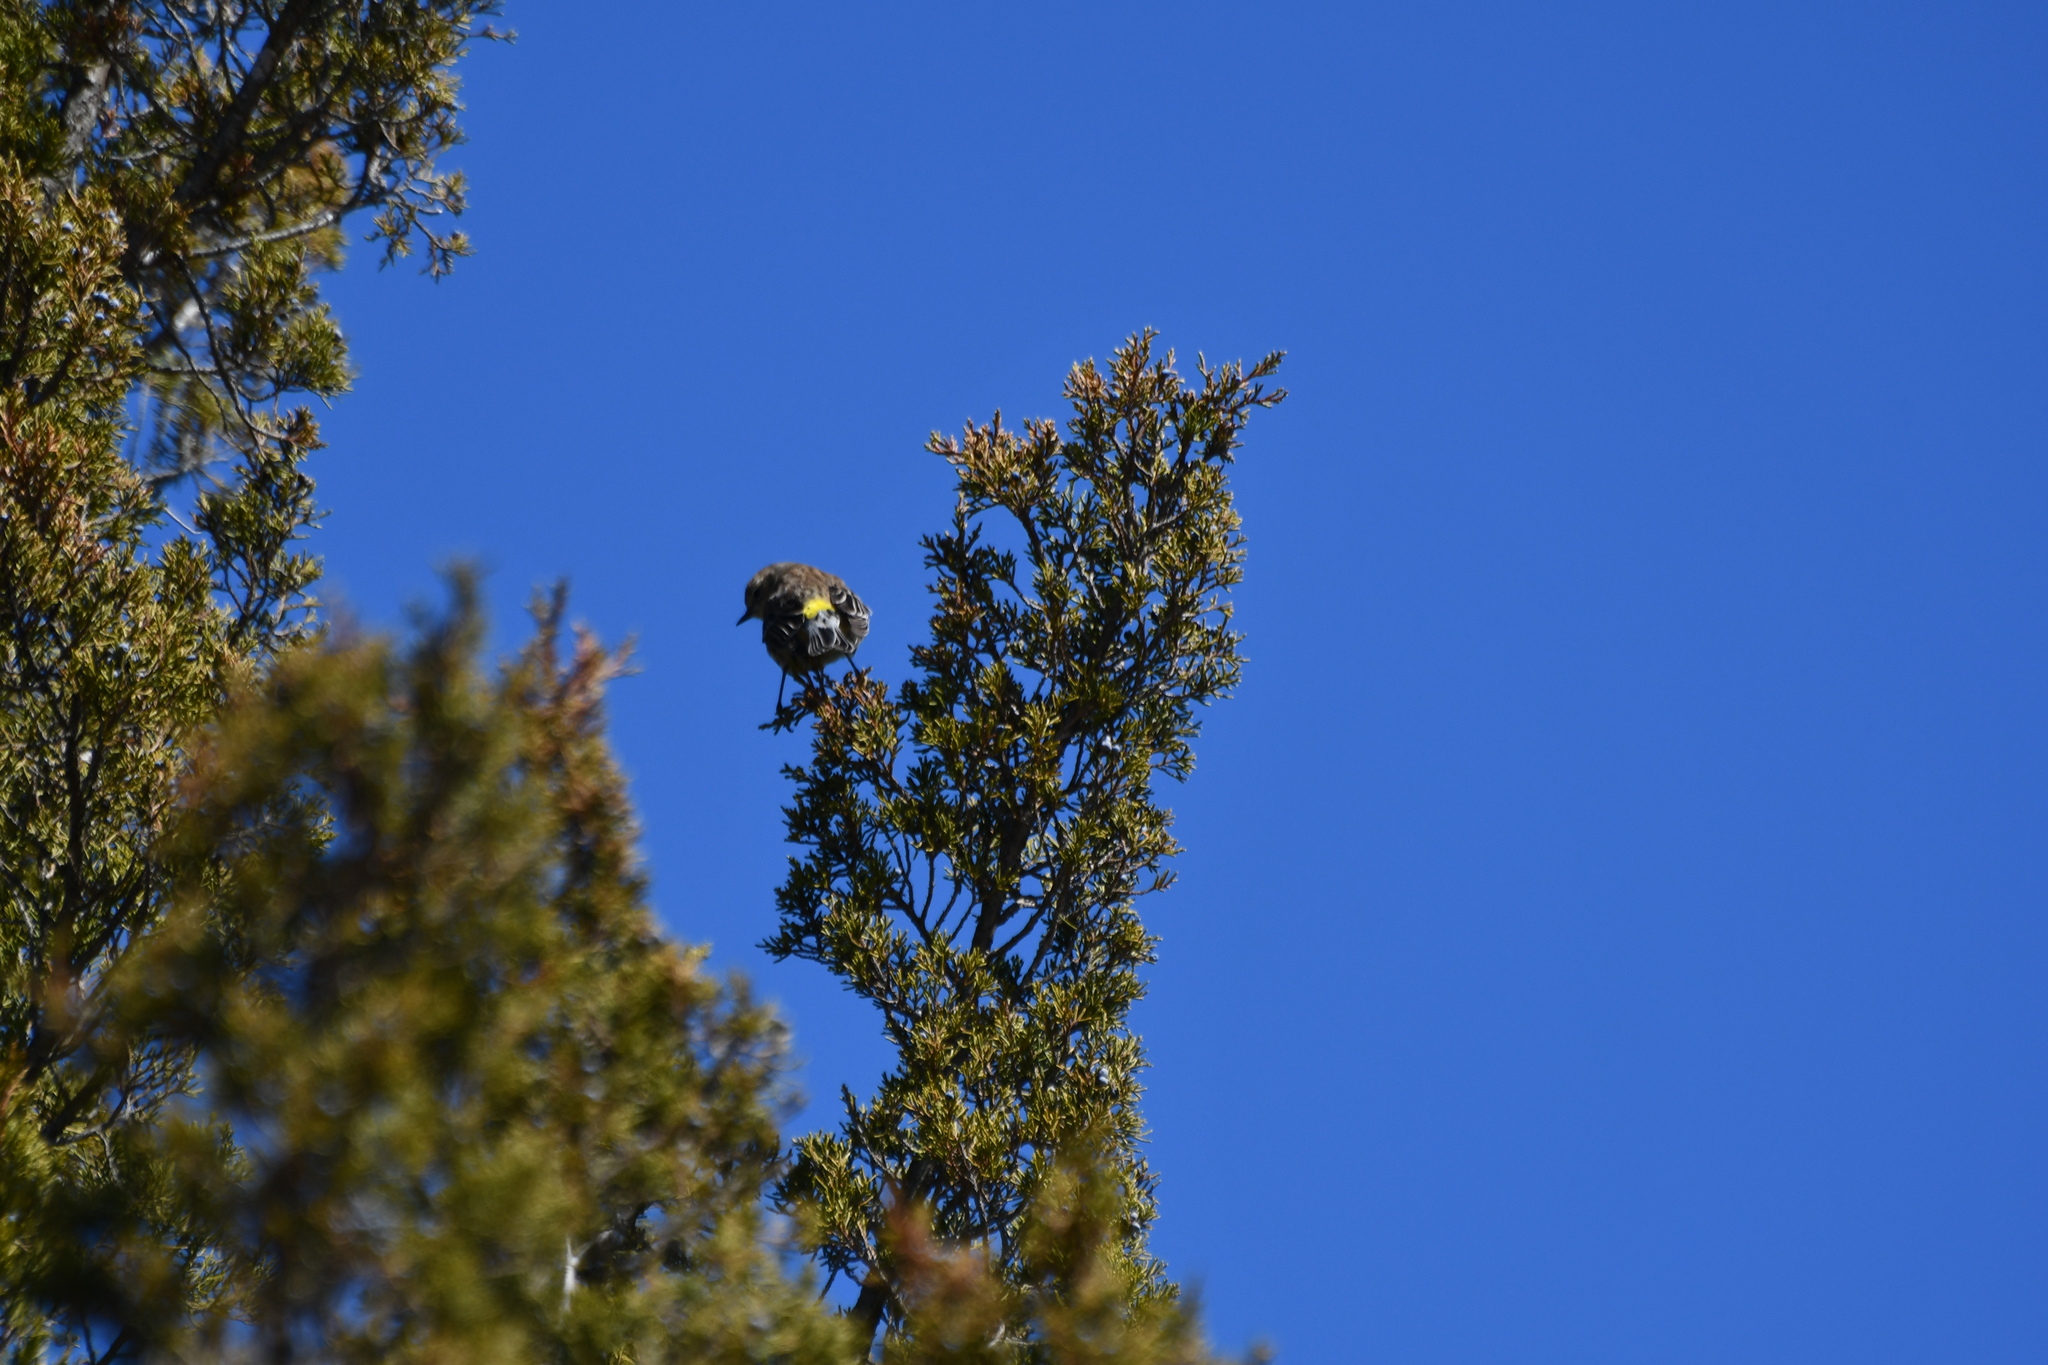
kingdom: Animalia
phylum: Chordata
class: Aves
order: Passeriformes
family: Parulidae
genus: Setophaga
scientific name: Setophaga coronata
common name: Myrtle warbler
